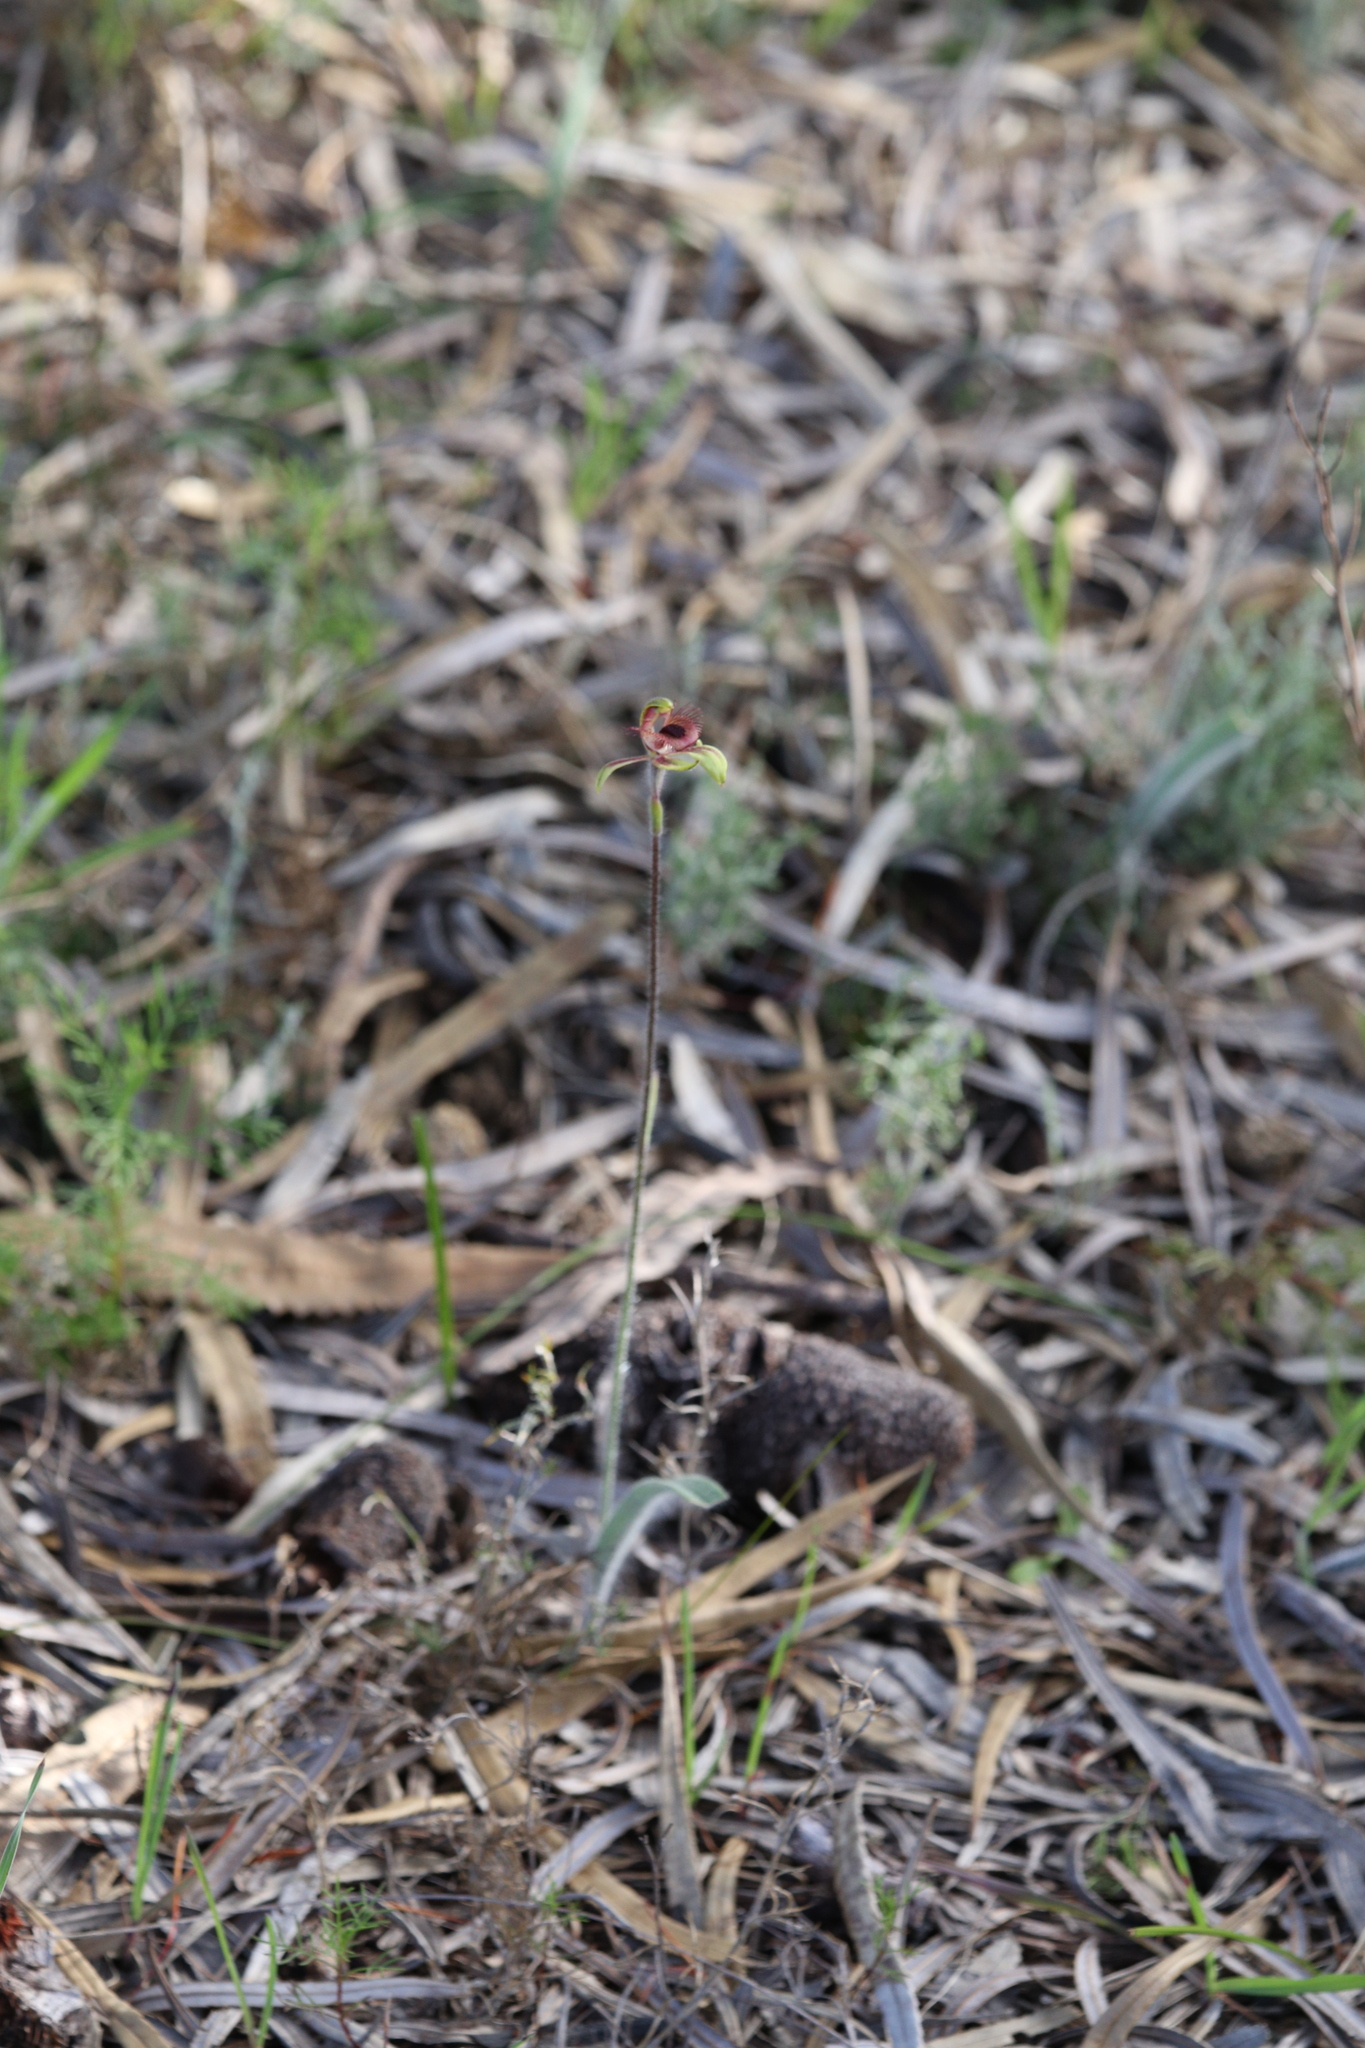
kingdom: Plantae
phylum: Tracheophyta
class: Liliopsida
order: Asparagales
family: Orchidaceae
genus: Caladenia
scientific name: Caladenia discoidea
